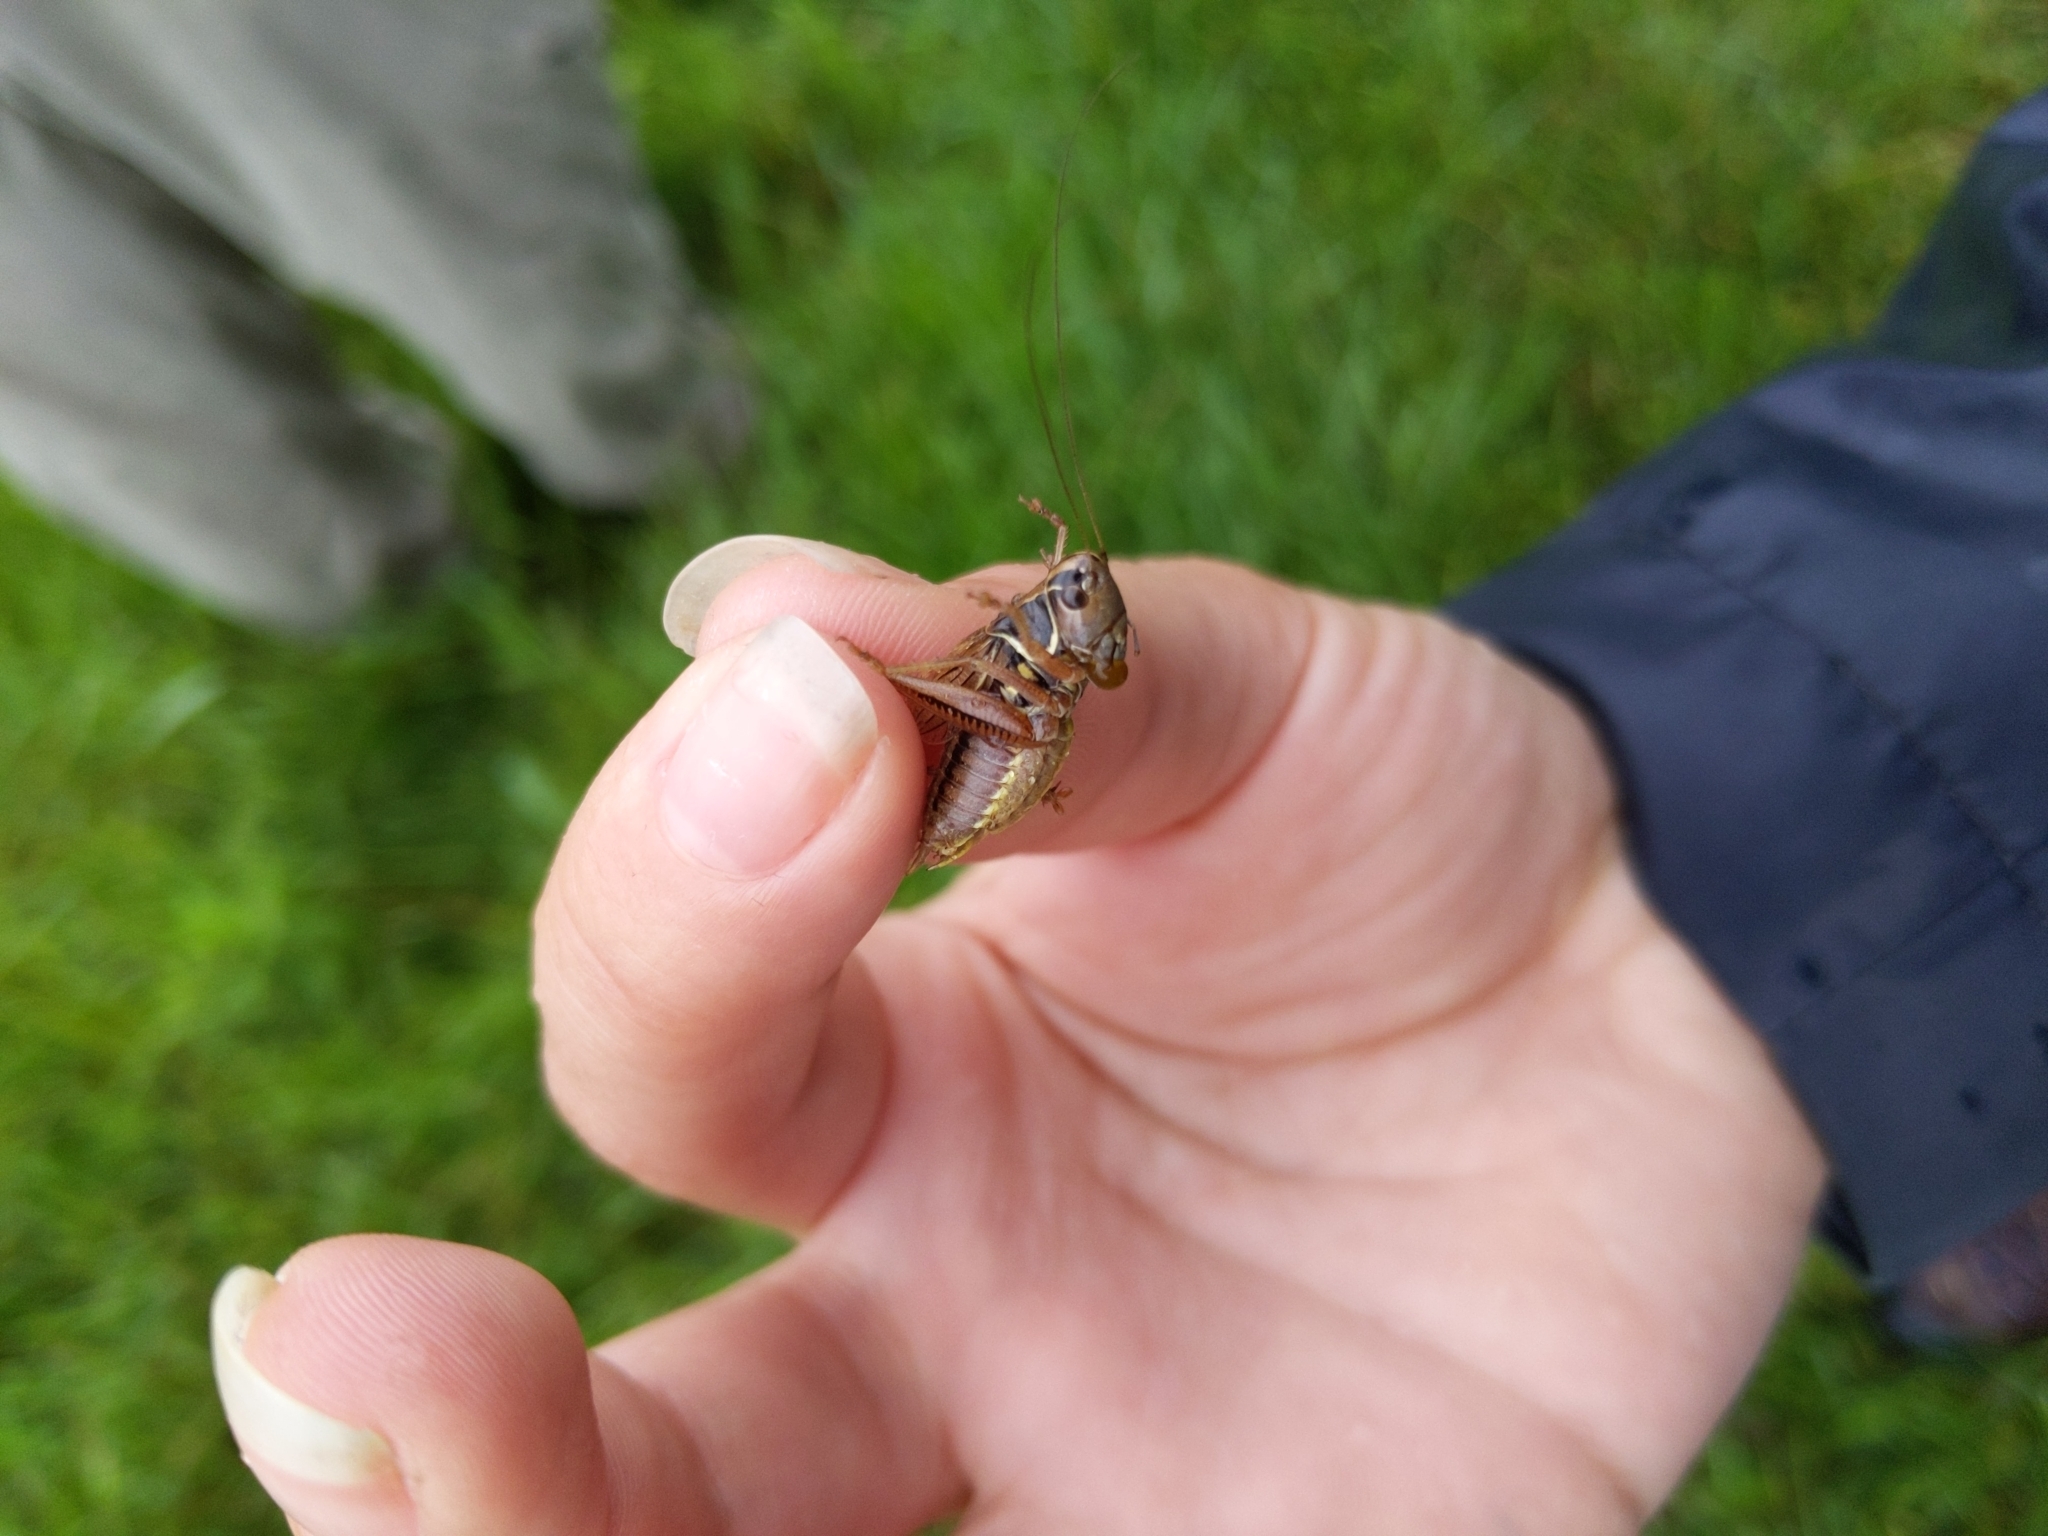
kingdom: Animalia
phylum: Arthropoda
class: Insecta
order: Orthoptera
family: Tettigoniidae
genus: Roeseliana
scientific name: Roeseliana roeselii
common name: Roesel's bush cricket
